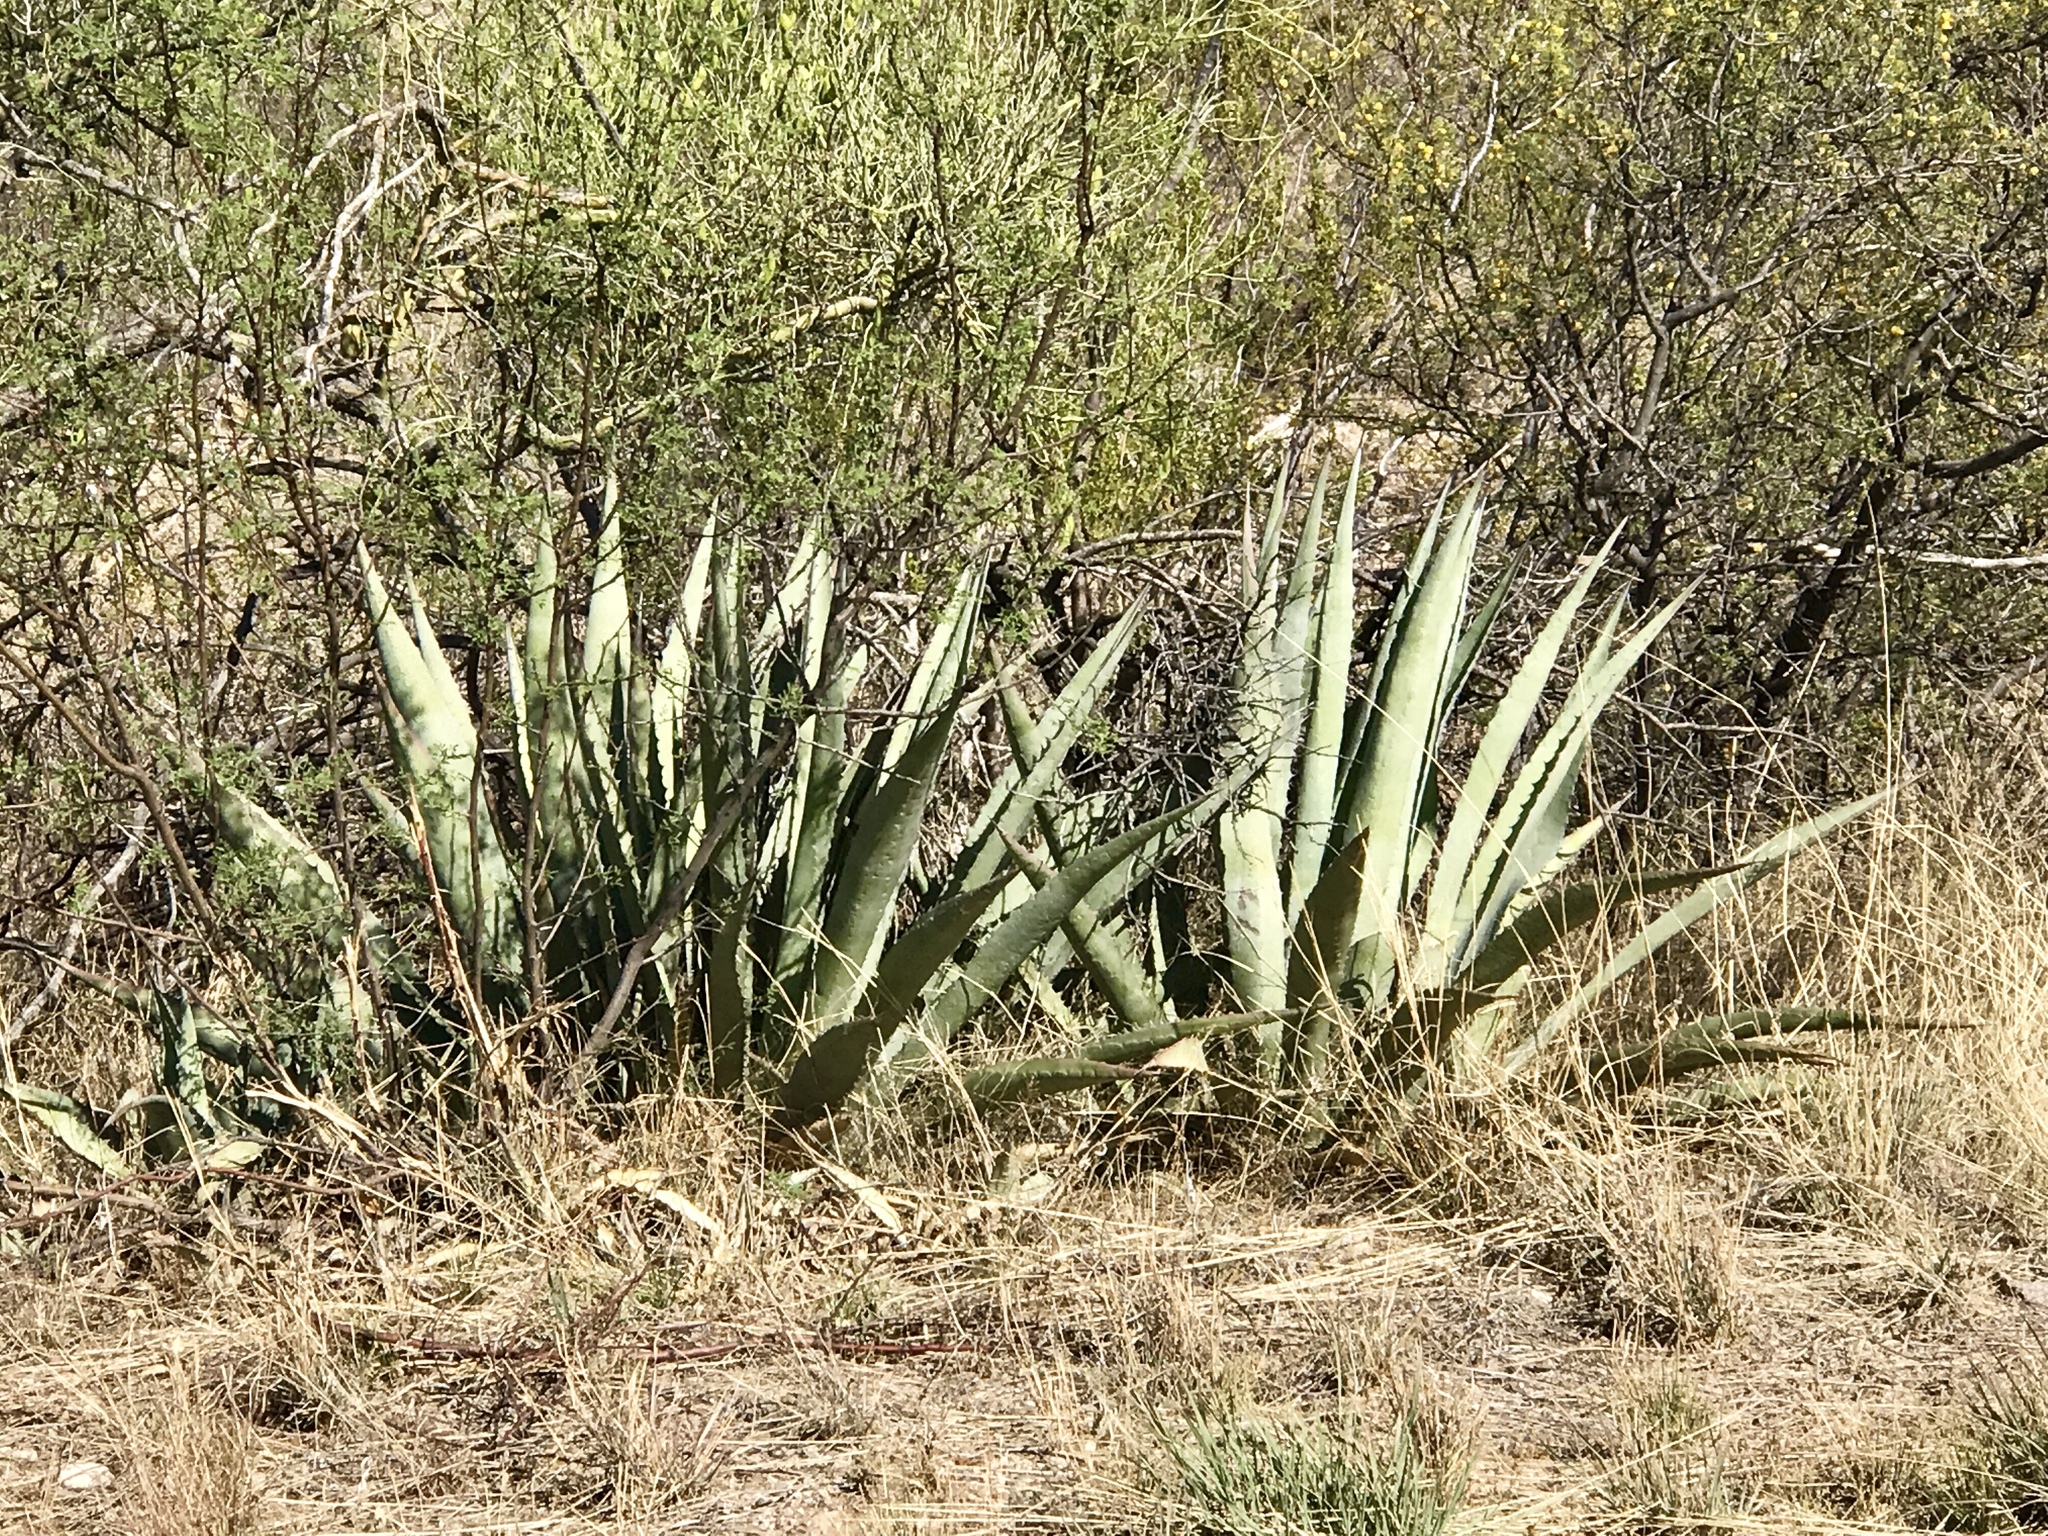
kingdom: Plantae
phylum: Tracheophyta
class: Liliopsida
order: Asparagales
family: Asparagaceae
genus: Agave
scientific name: Agave palmeri
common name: Palmer agave
